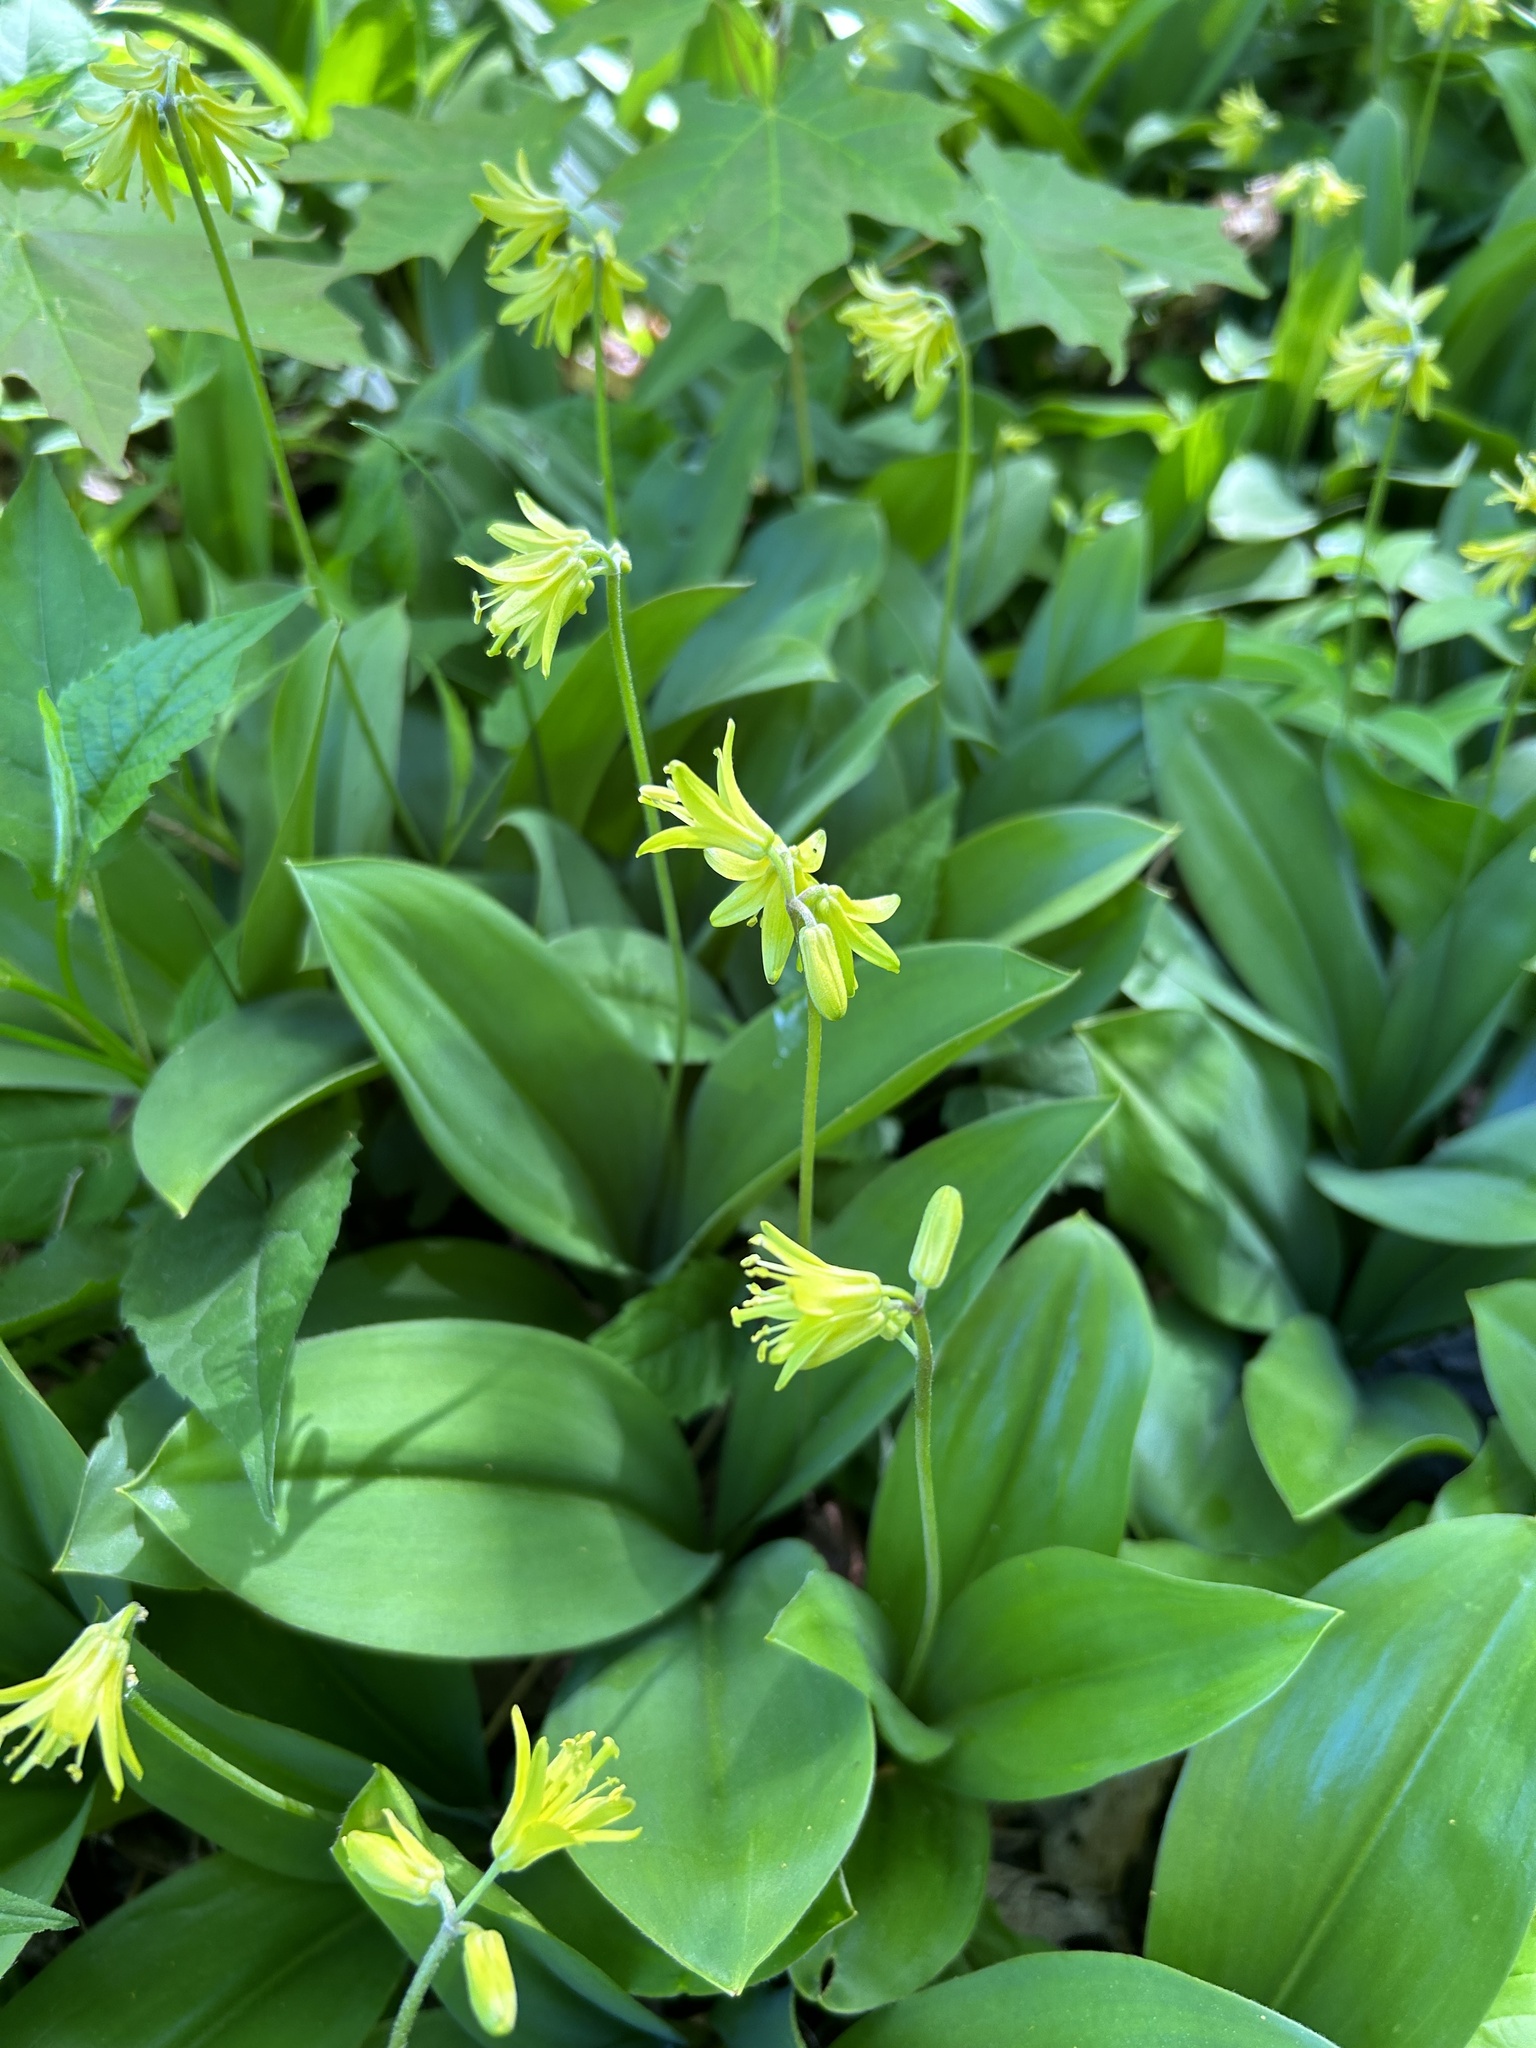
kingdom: Plantae
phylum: Tracheophyta
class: Liliopsida
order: Liliales
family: Liliaceae
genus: Clintonia
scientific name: Clintonia borealis
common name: Yellow clintonia
